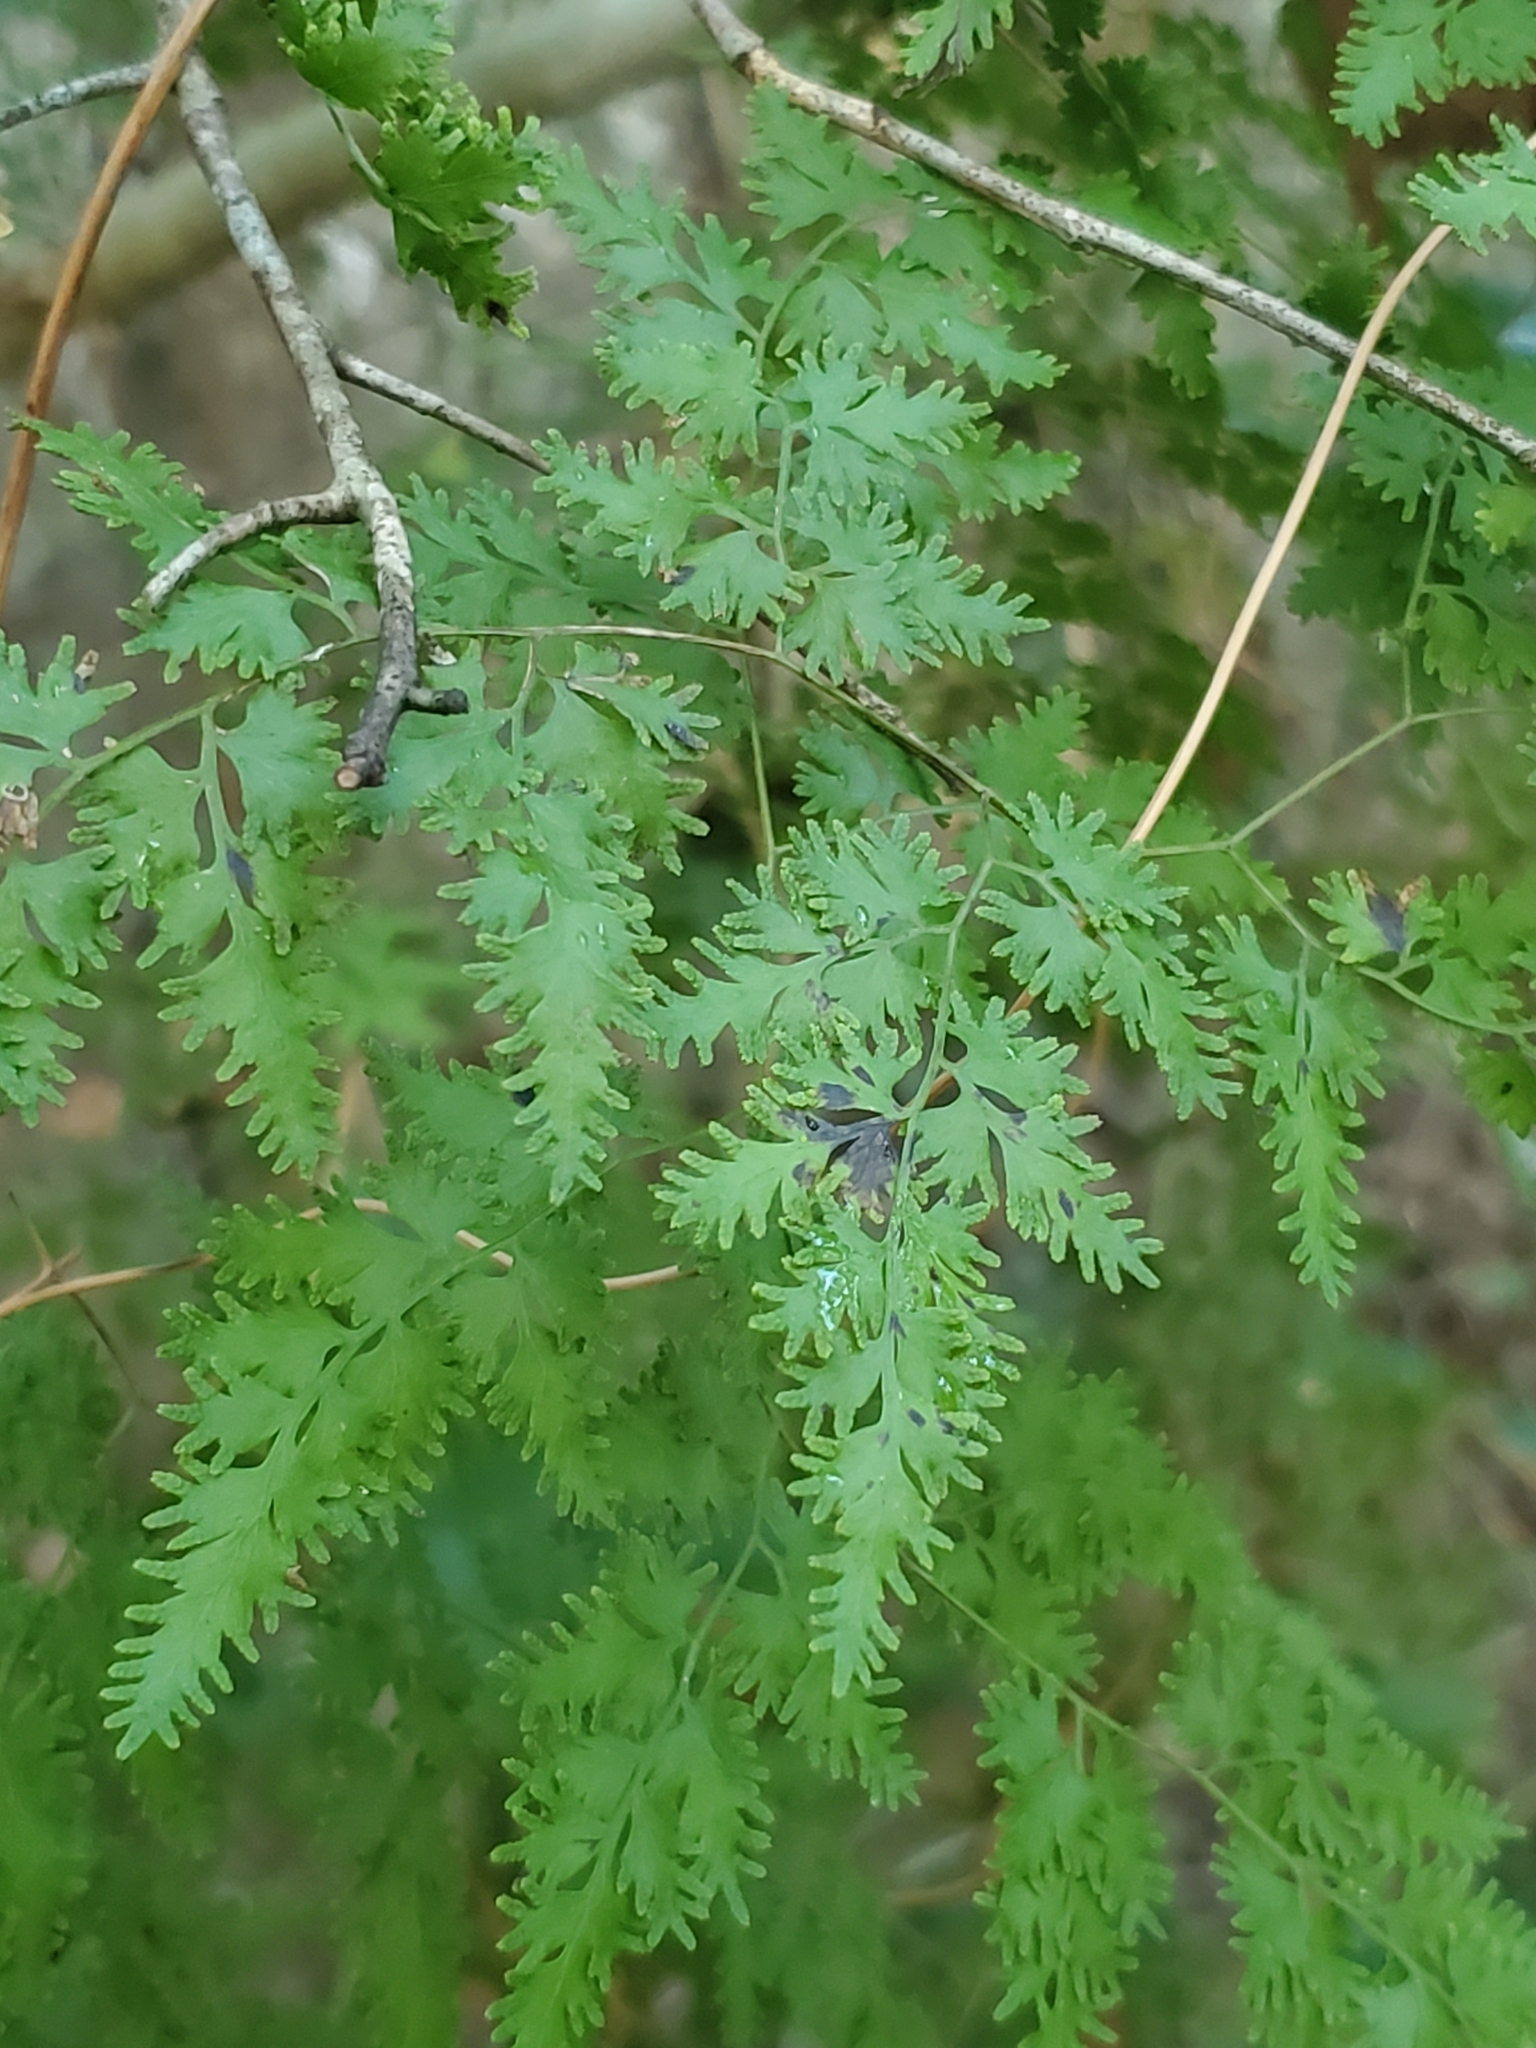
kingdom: Plantae
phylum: Tracheophyta
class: Polypodiopsida
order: Schizaeales
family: Lygodiaceae
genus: Lygodium
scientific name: Lygodium japonicum
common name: Japanese climbing fern
